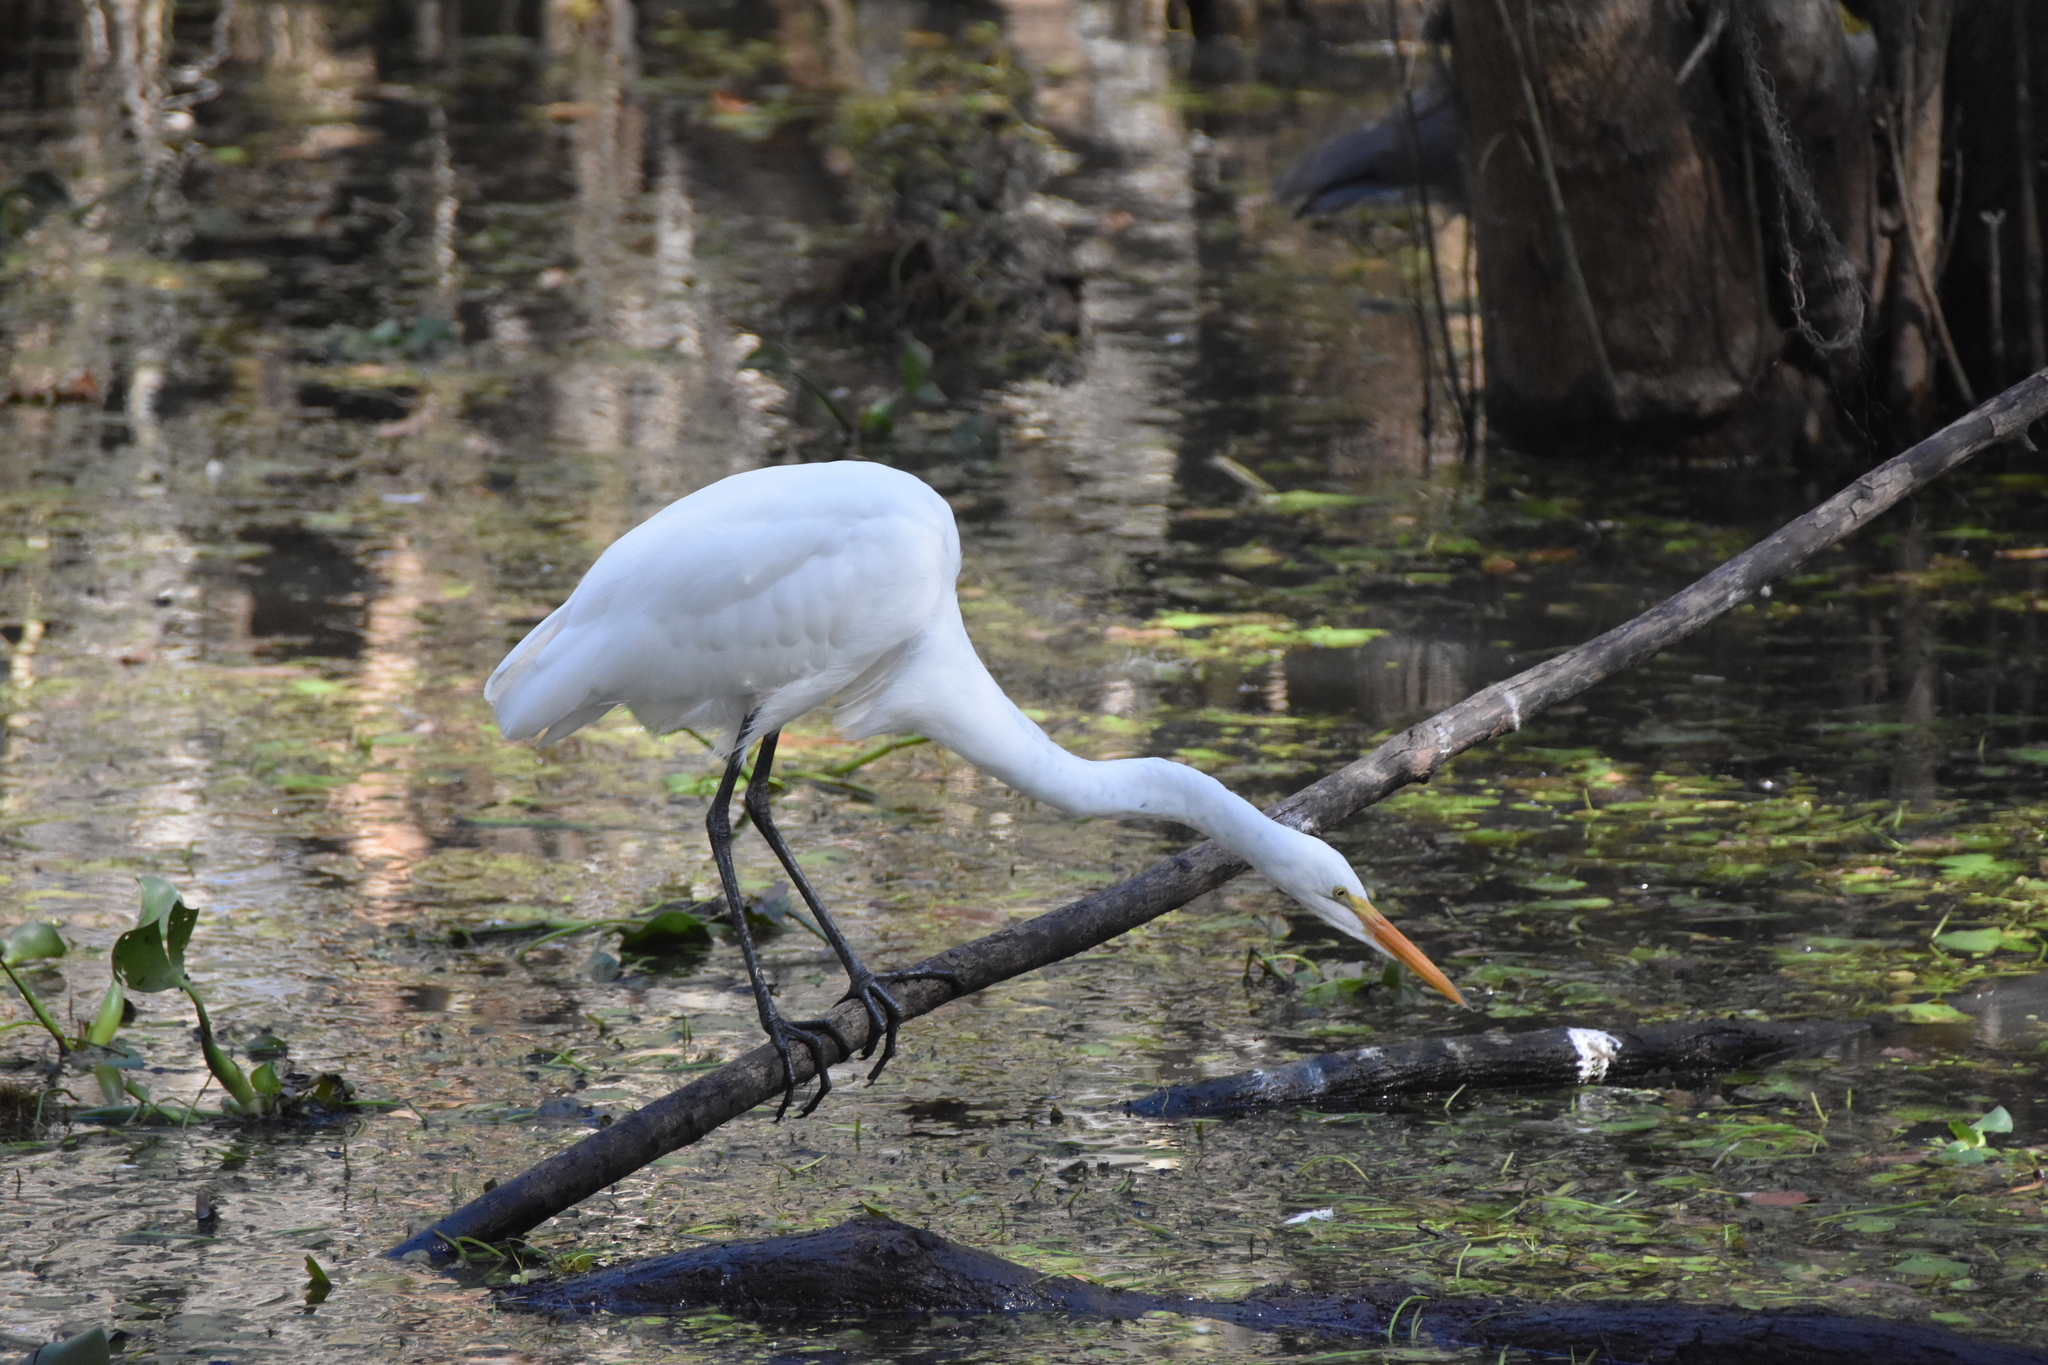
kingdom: Animalia
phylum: Chordata
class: Aves
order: Pelecaniformes
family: Ardeidae
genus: Ardea
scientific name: Ardea alba
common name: Great egret
